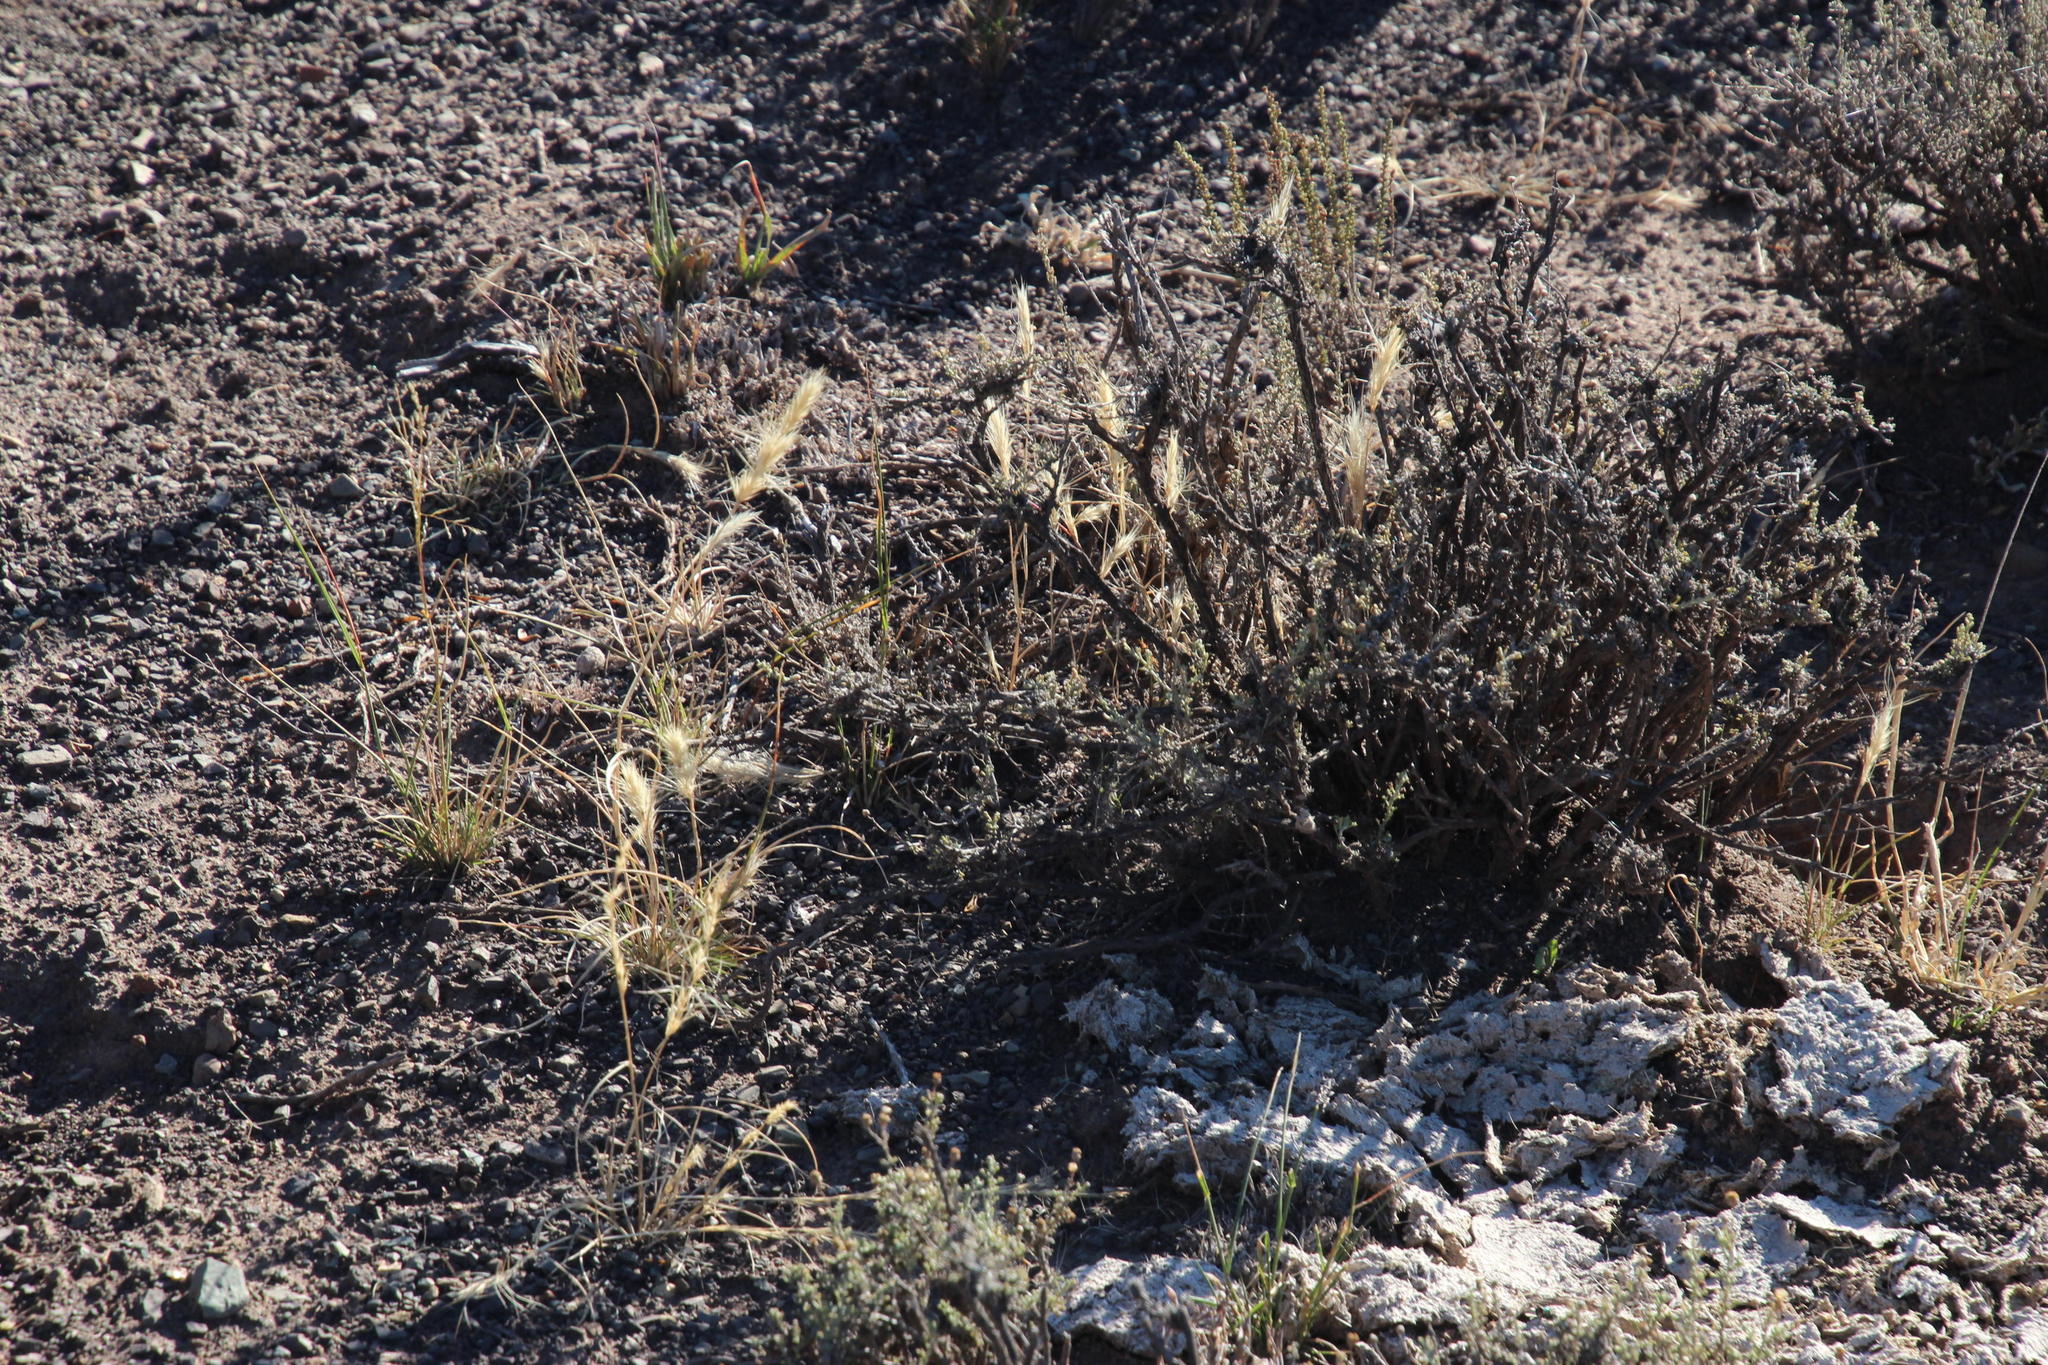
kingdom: Plantae
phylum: Tracheophyta
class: Liliopsida
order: Poales
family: Poaceae
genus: Aristida
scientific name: Aristida congesta
